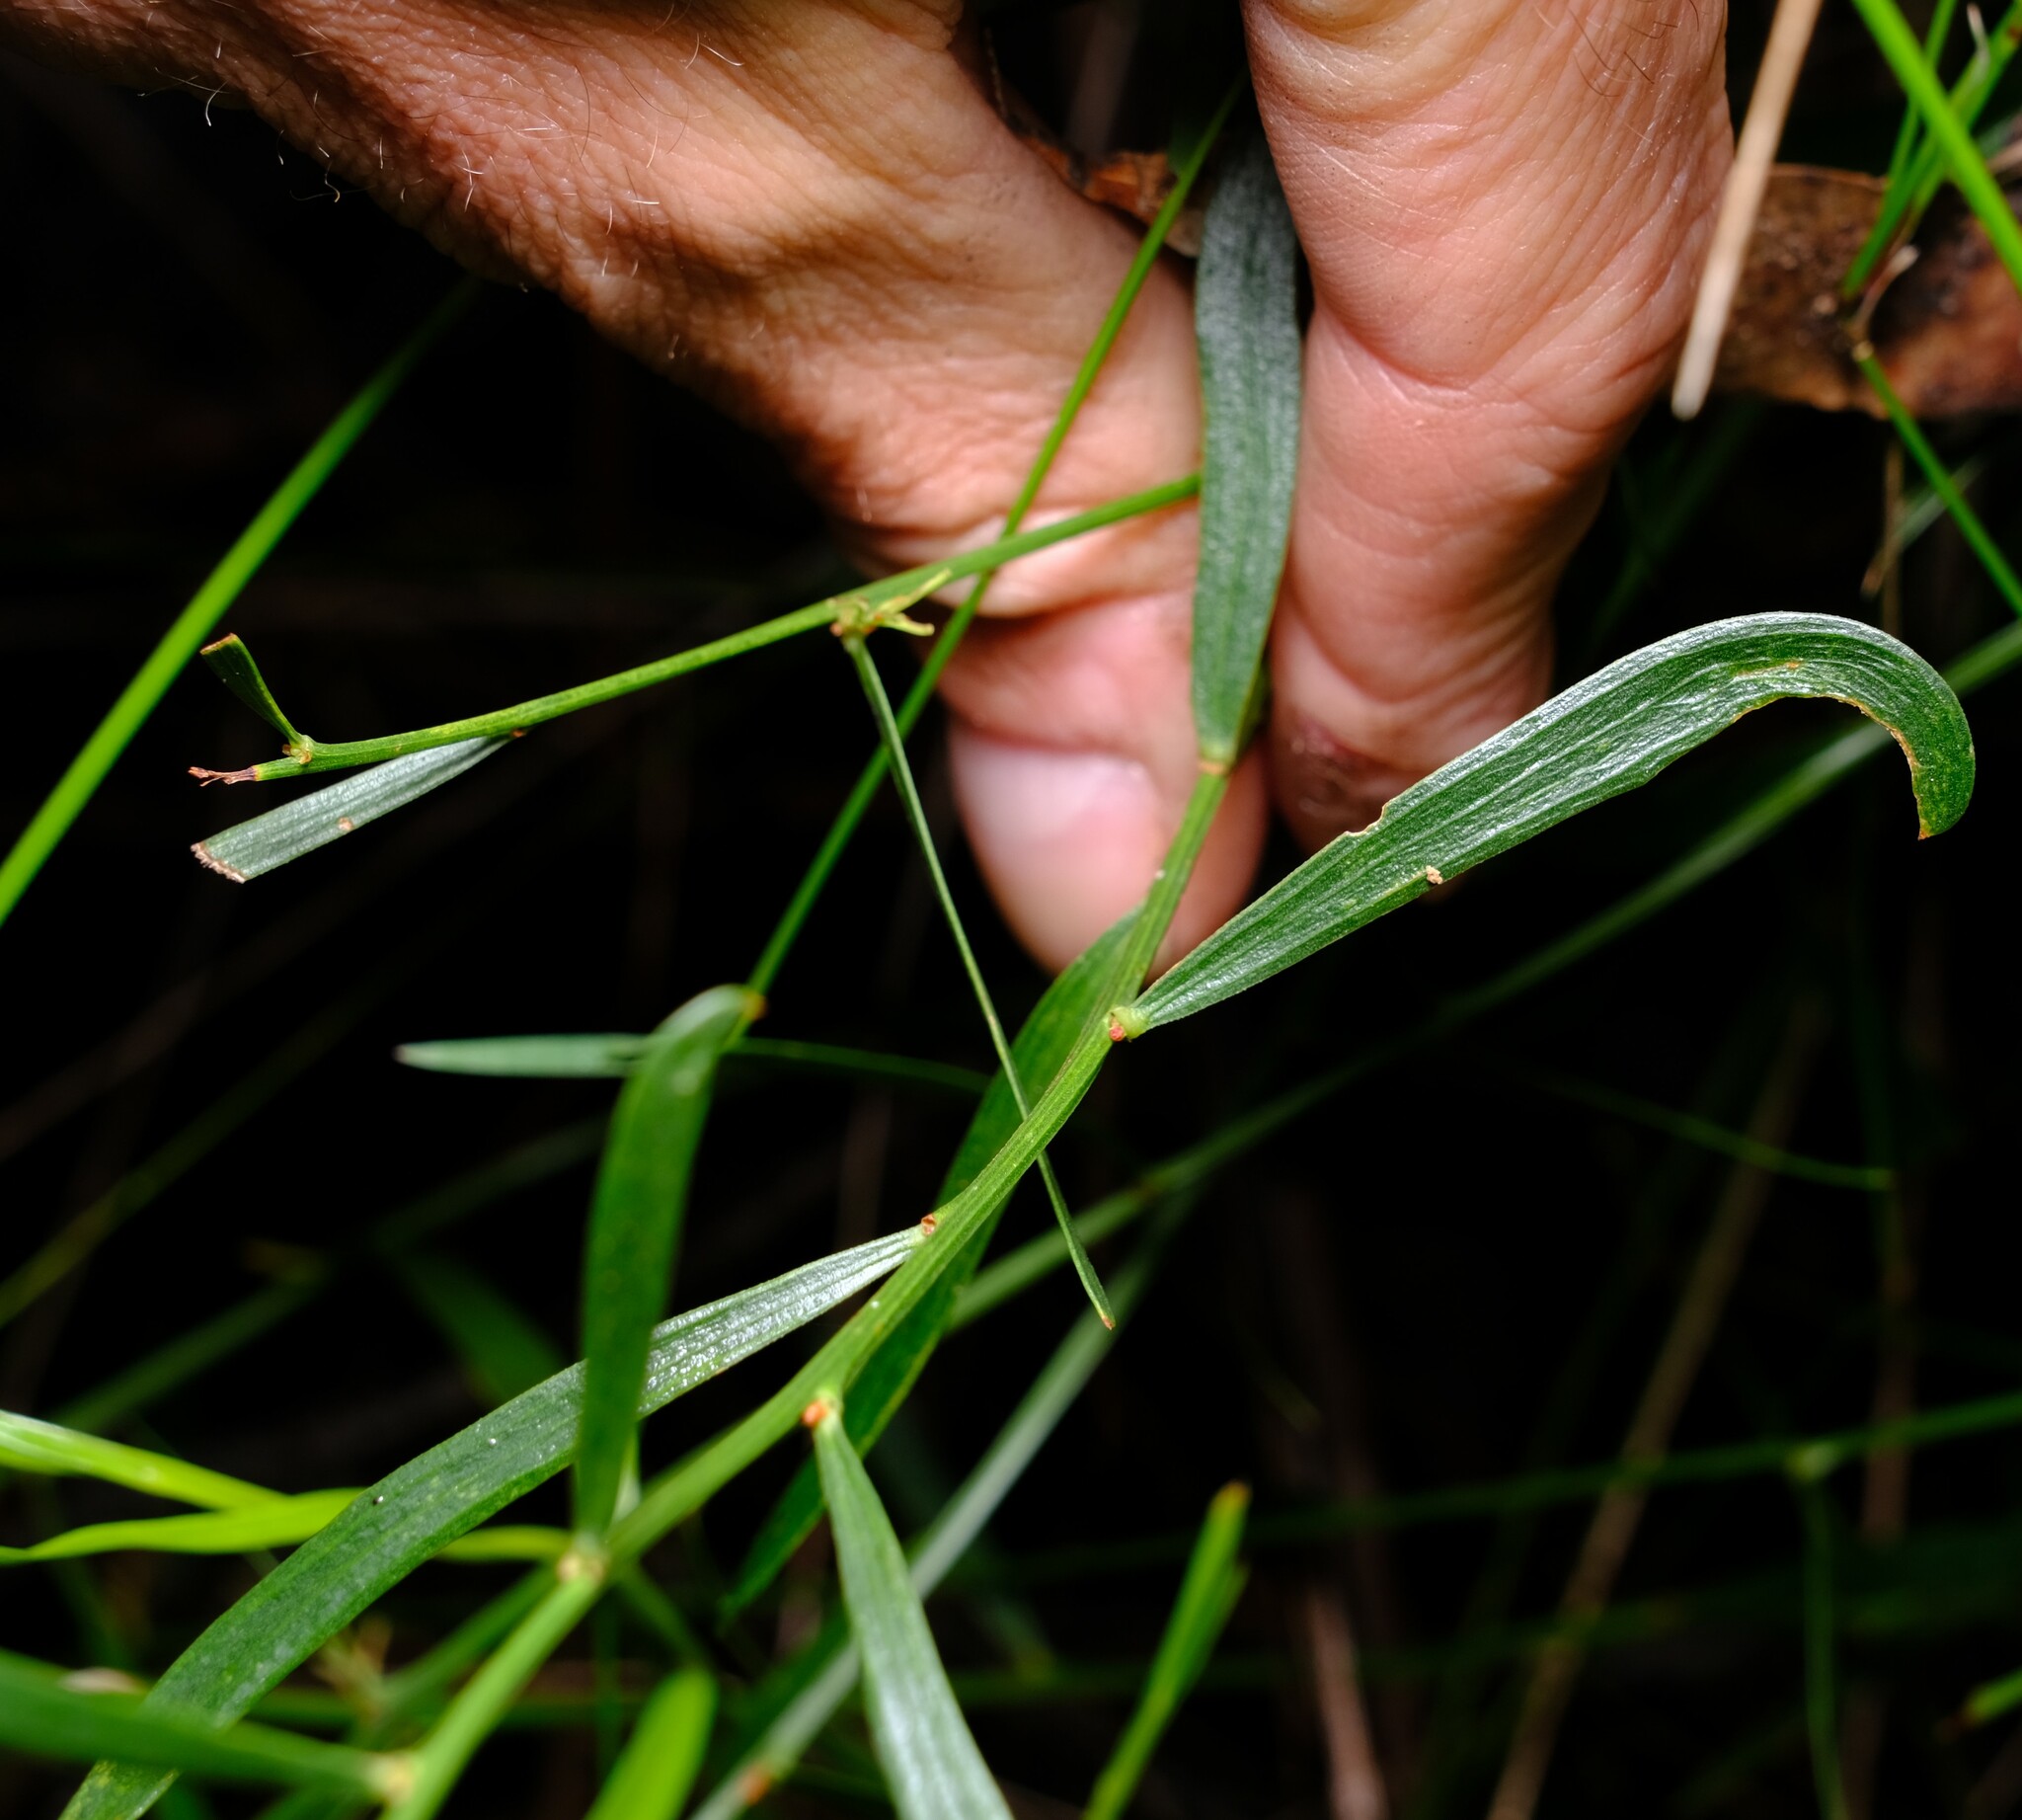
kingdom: Plantae
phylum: Tracheophyta
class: Magnoliopsida
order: Fabales
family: Fabaceae
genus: Daviesia
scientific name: Daviesia leptophylla
